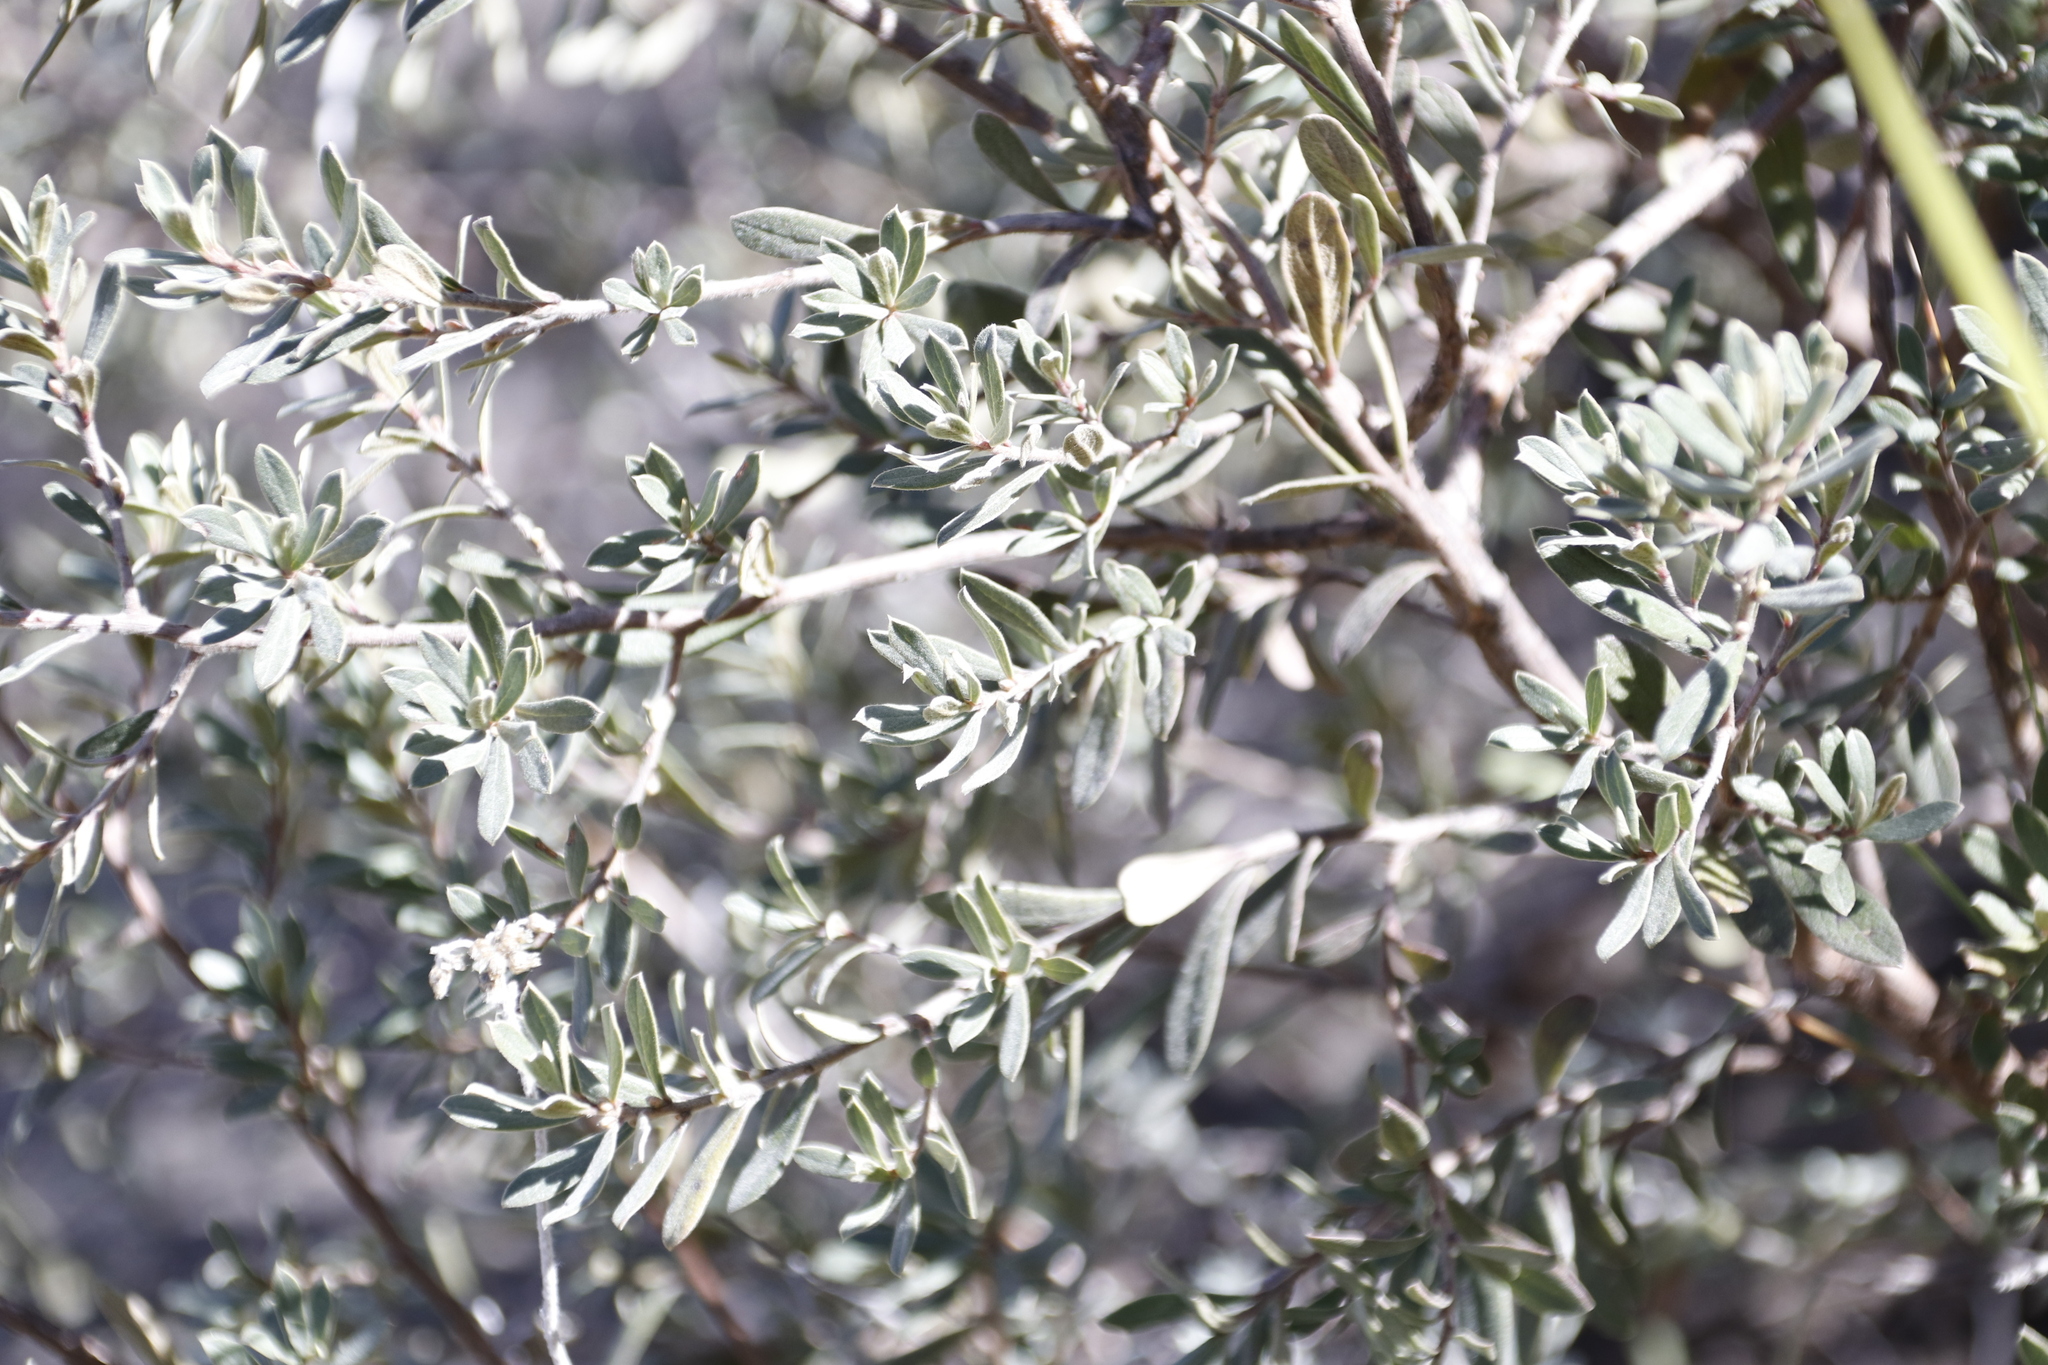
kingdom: Plantae
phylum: Tracheophyta
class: Magnoliopsida
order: Ericales
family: Ebenaceae
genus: Diospyros
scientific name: Diospyros pubescens
